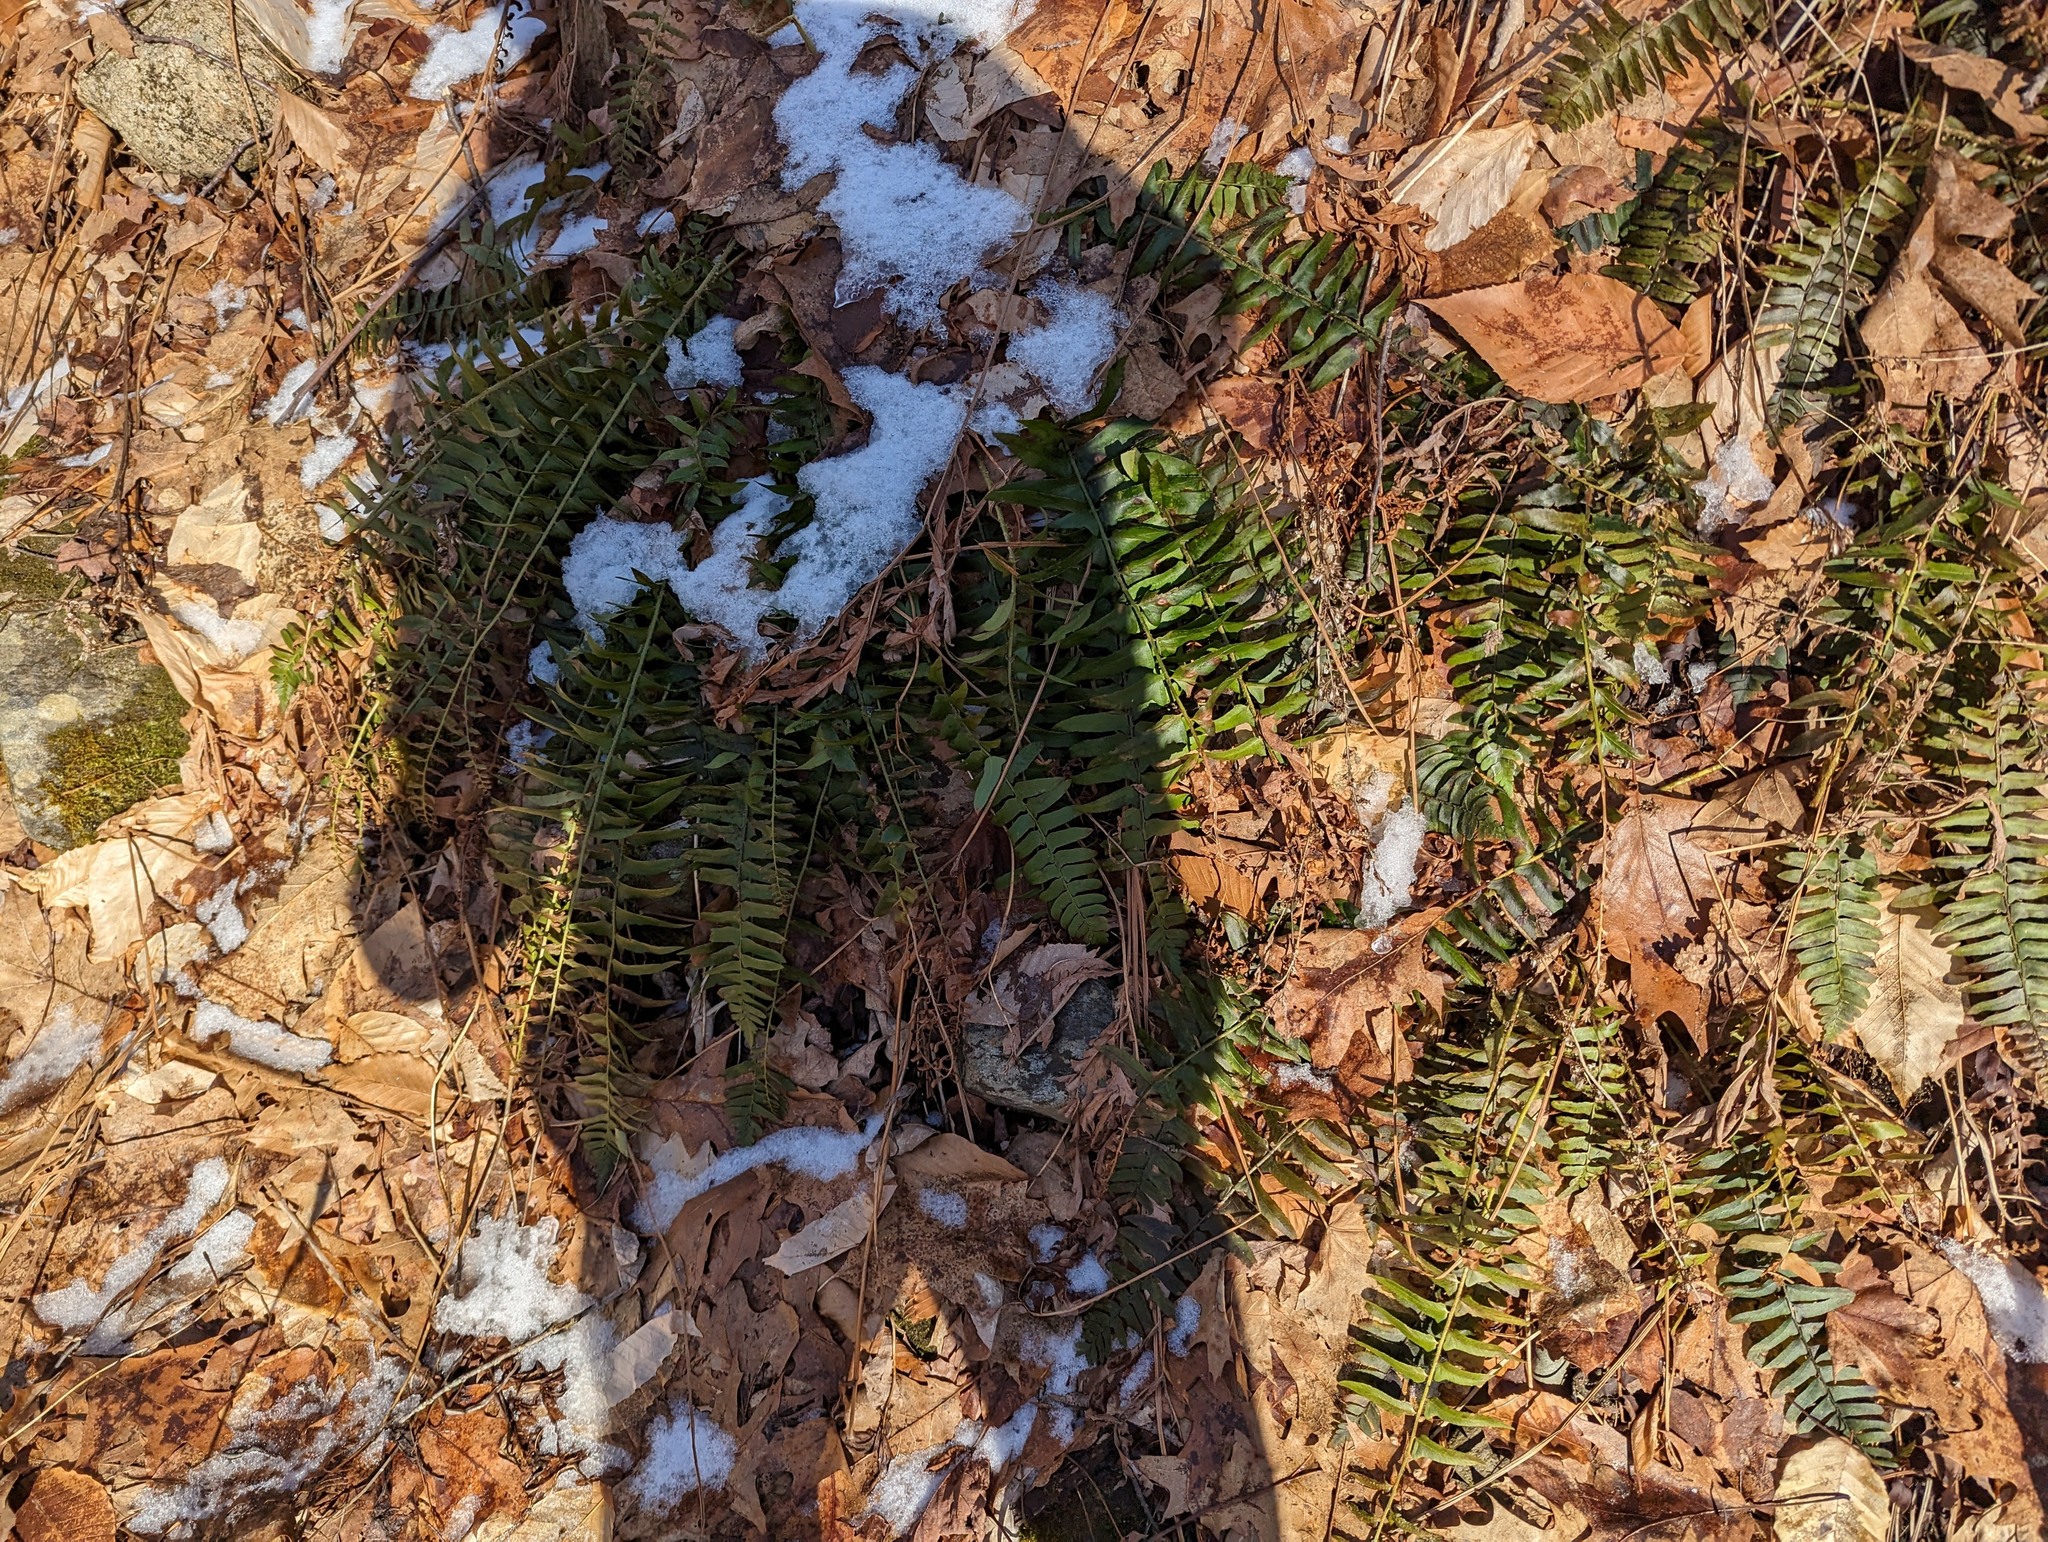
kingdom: Plantae
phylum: Tracheophyta
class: Polypodiopsida
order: Polypodiales
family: Dryopteridaceae
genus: Polystichum
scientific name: Polystichum acrostichoides
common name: Christmas fern
